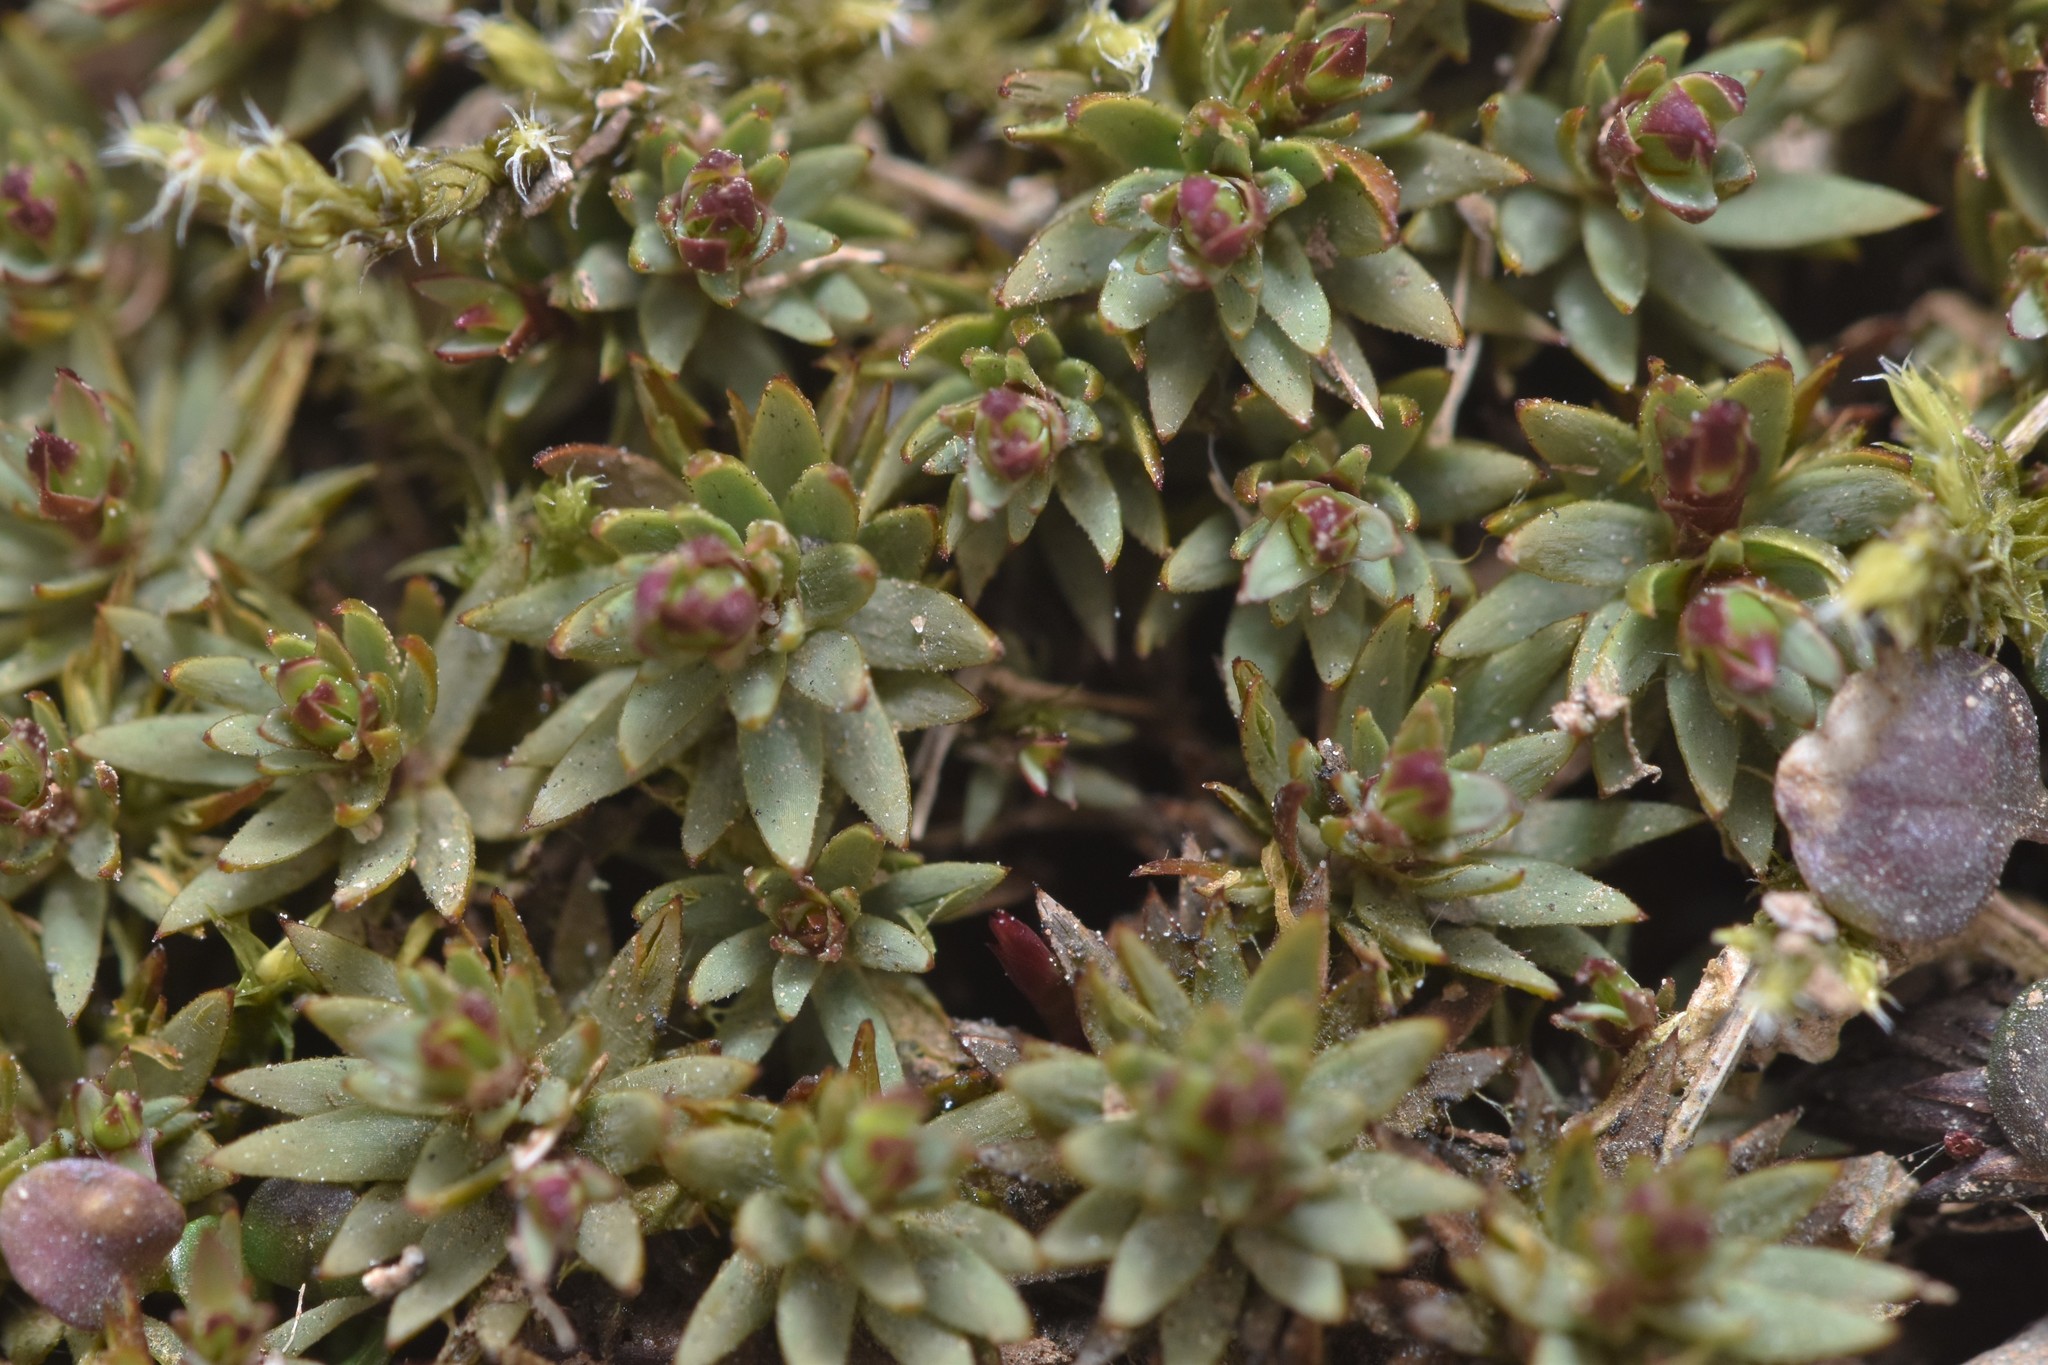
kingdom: Plantae
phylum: Bryophyta
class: Polytrichopsida
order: Polytrichales
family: Polytrichaceae
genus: Pogonatum
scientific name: Pogonatum urnigerum
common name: Urn hair moss
